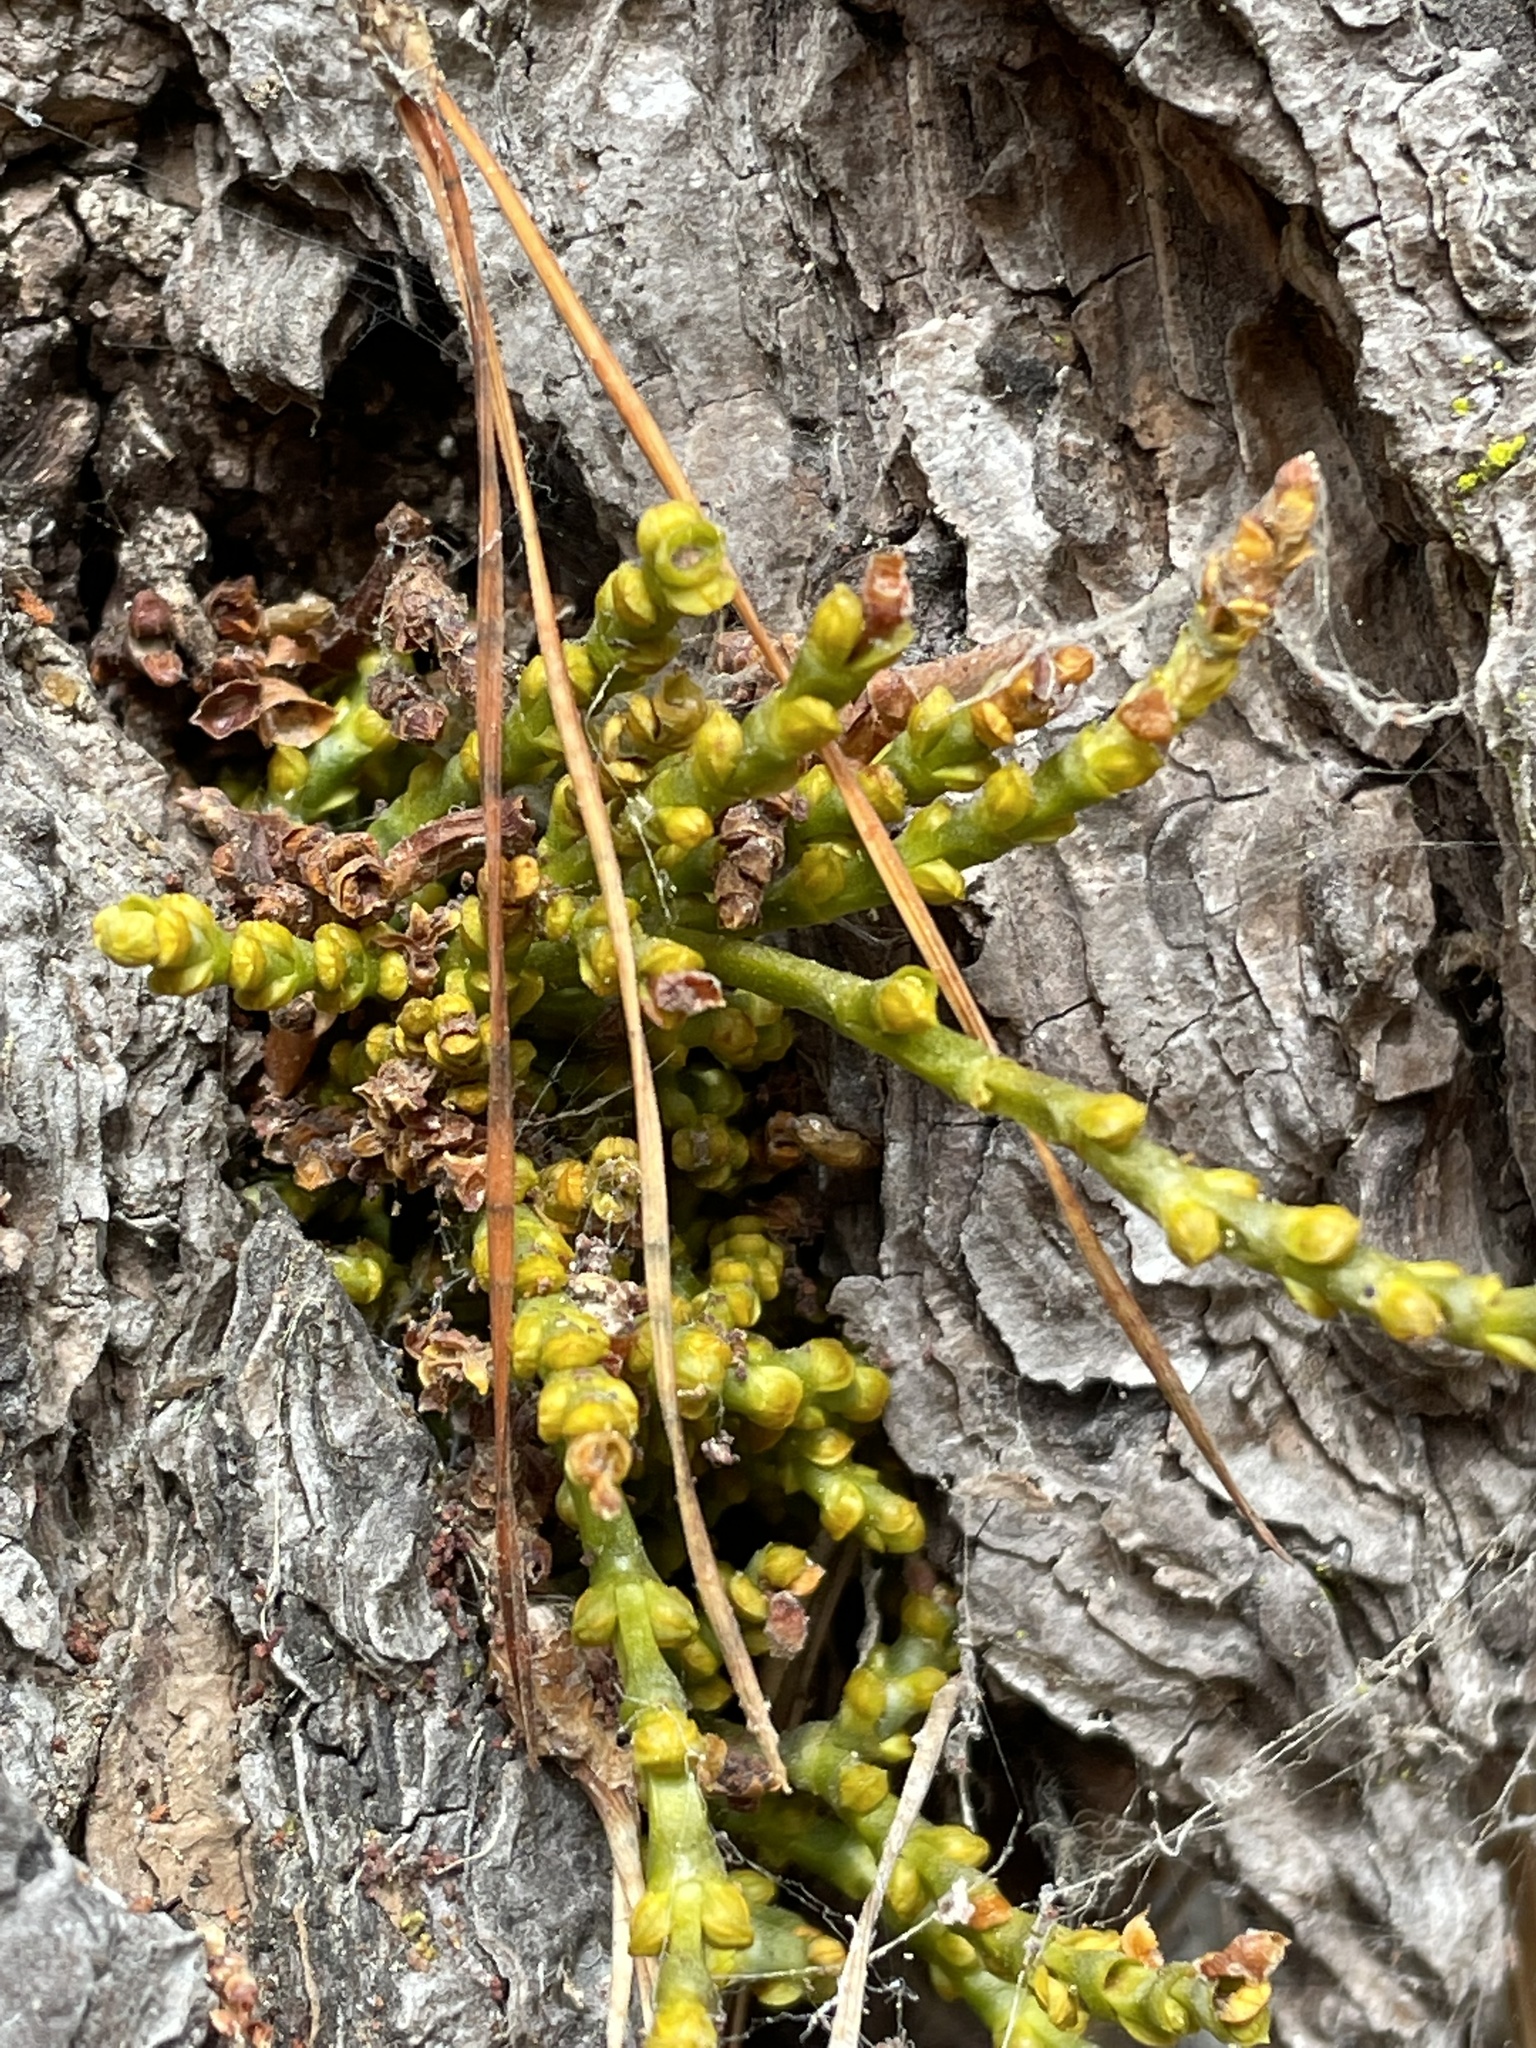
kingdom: Plantae
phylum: Tracheophyta
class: Magnoliopsida
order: Santalales
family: Viscaceae
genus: Arceuthobium
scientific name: Arceuthobium campylopodum
